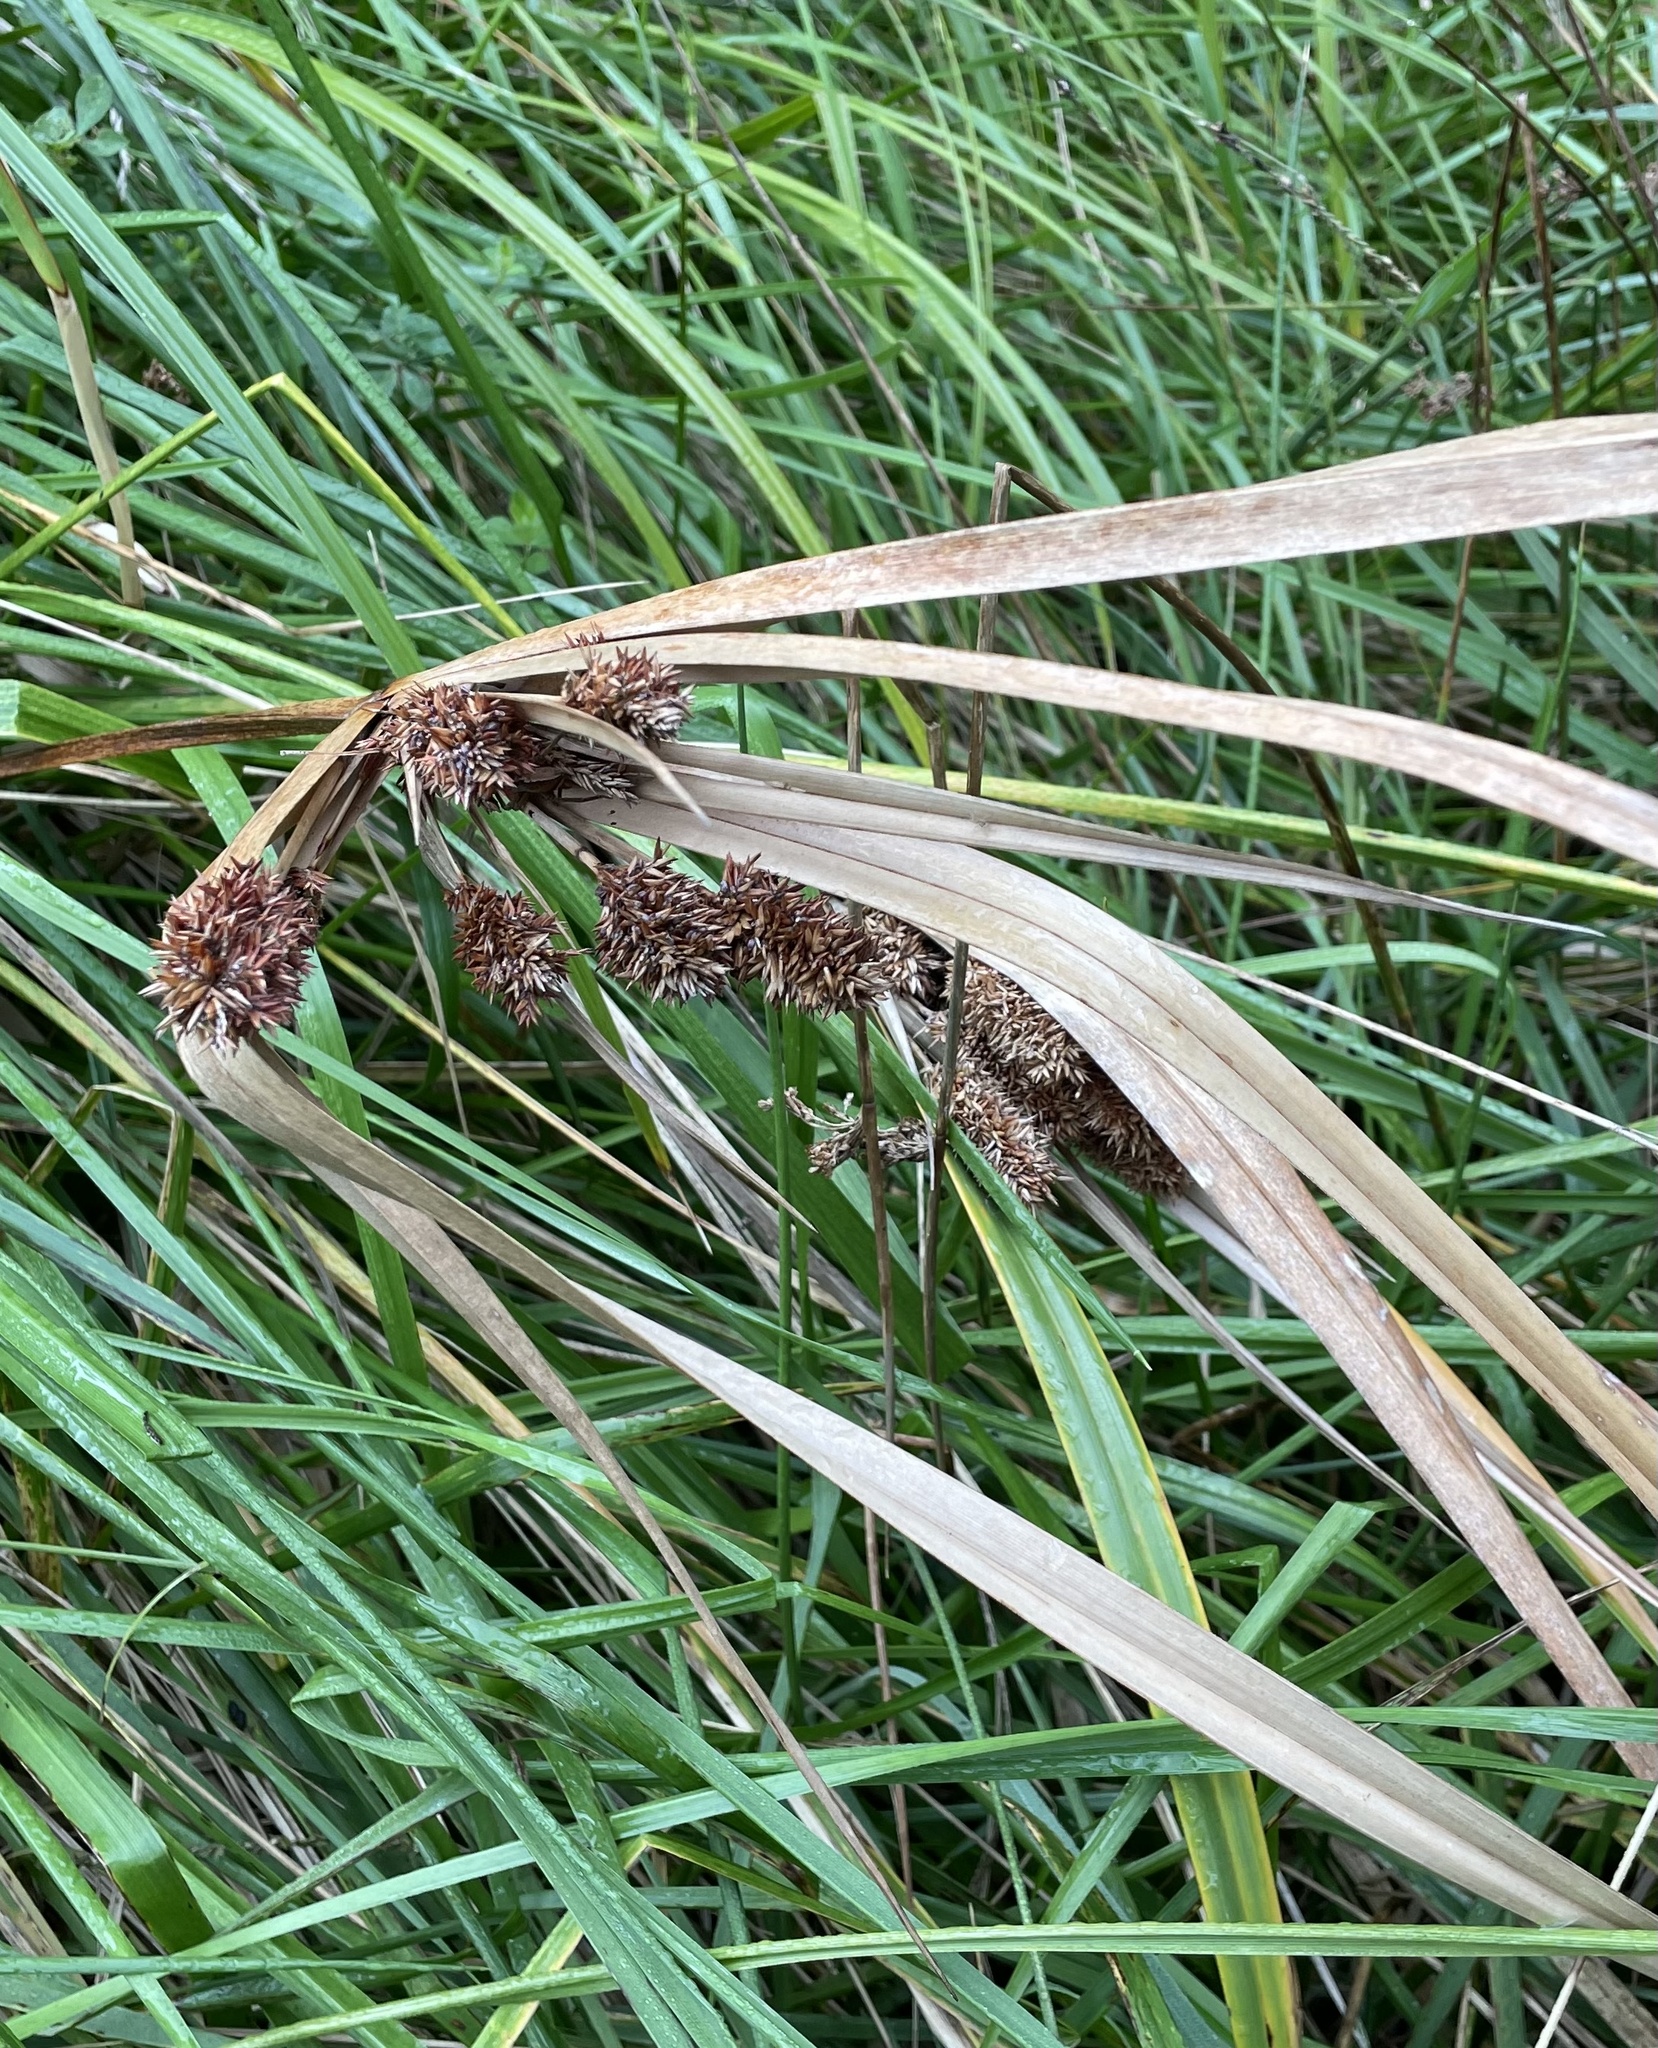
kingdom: Plantae
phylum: Tracheophyta
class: Liliopsida
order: Poales
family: Cyperaceae
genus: Cyperus
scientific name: Cyperus ustulatus
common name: Giant umbrella-sedge
